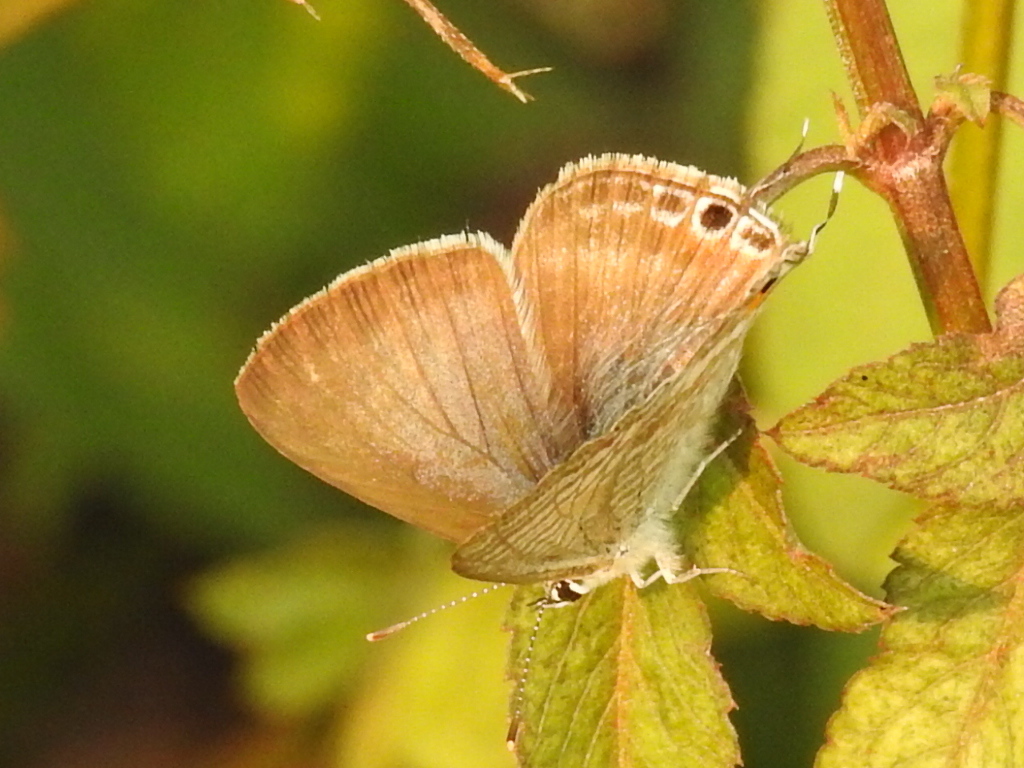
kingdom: Animalia
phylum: Arthropoda
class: Insecta
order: Lepidoptera
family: Lycaenidae
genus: Lampides
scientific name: Lampides boeticus
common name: Long-tailed blue
